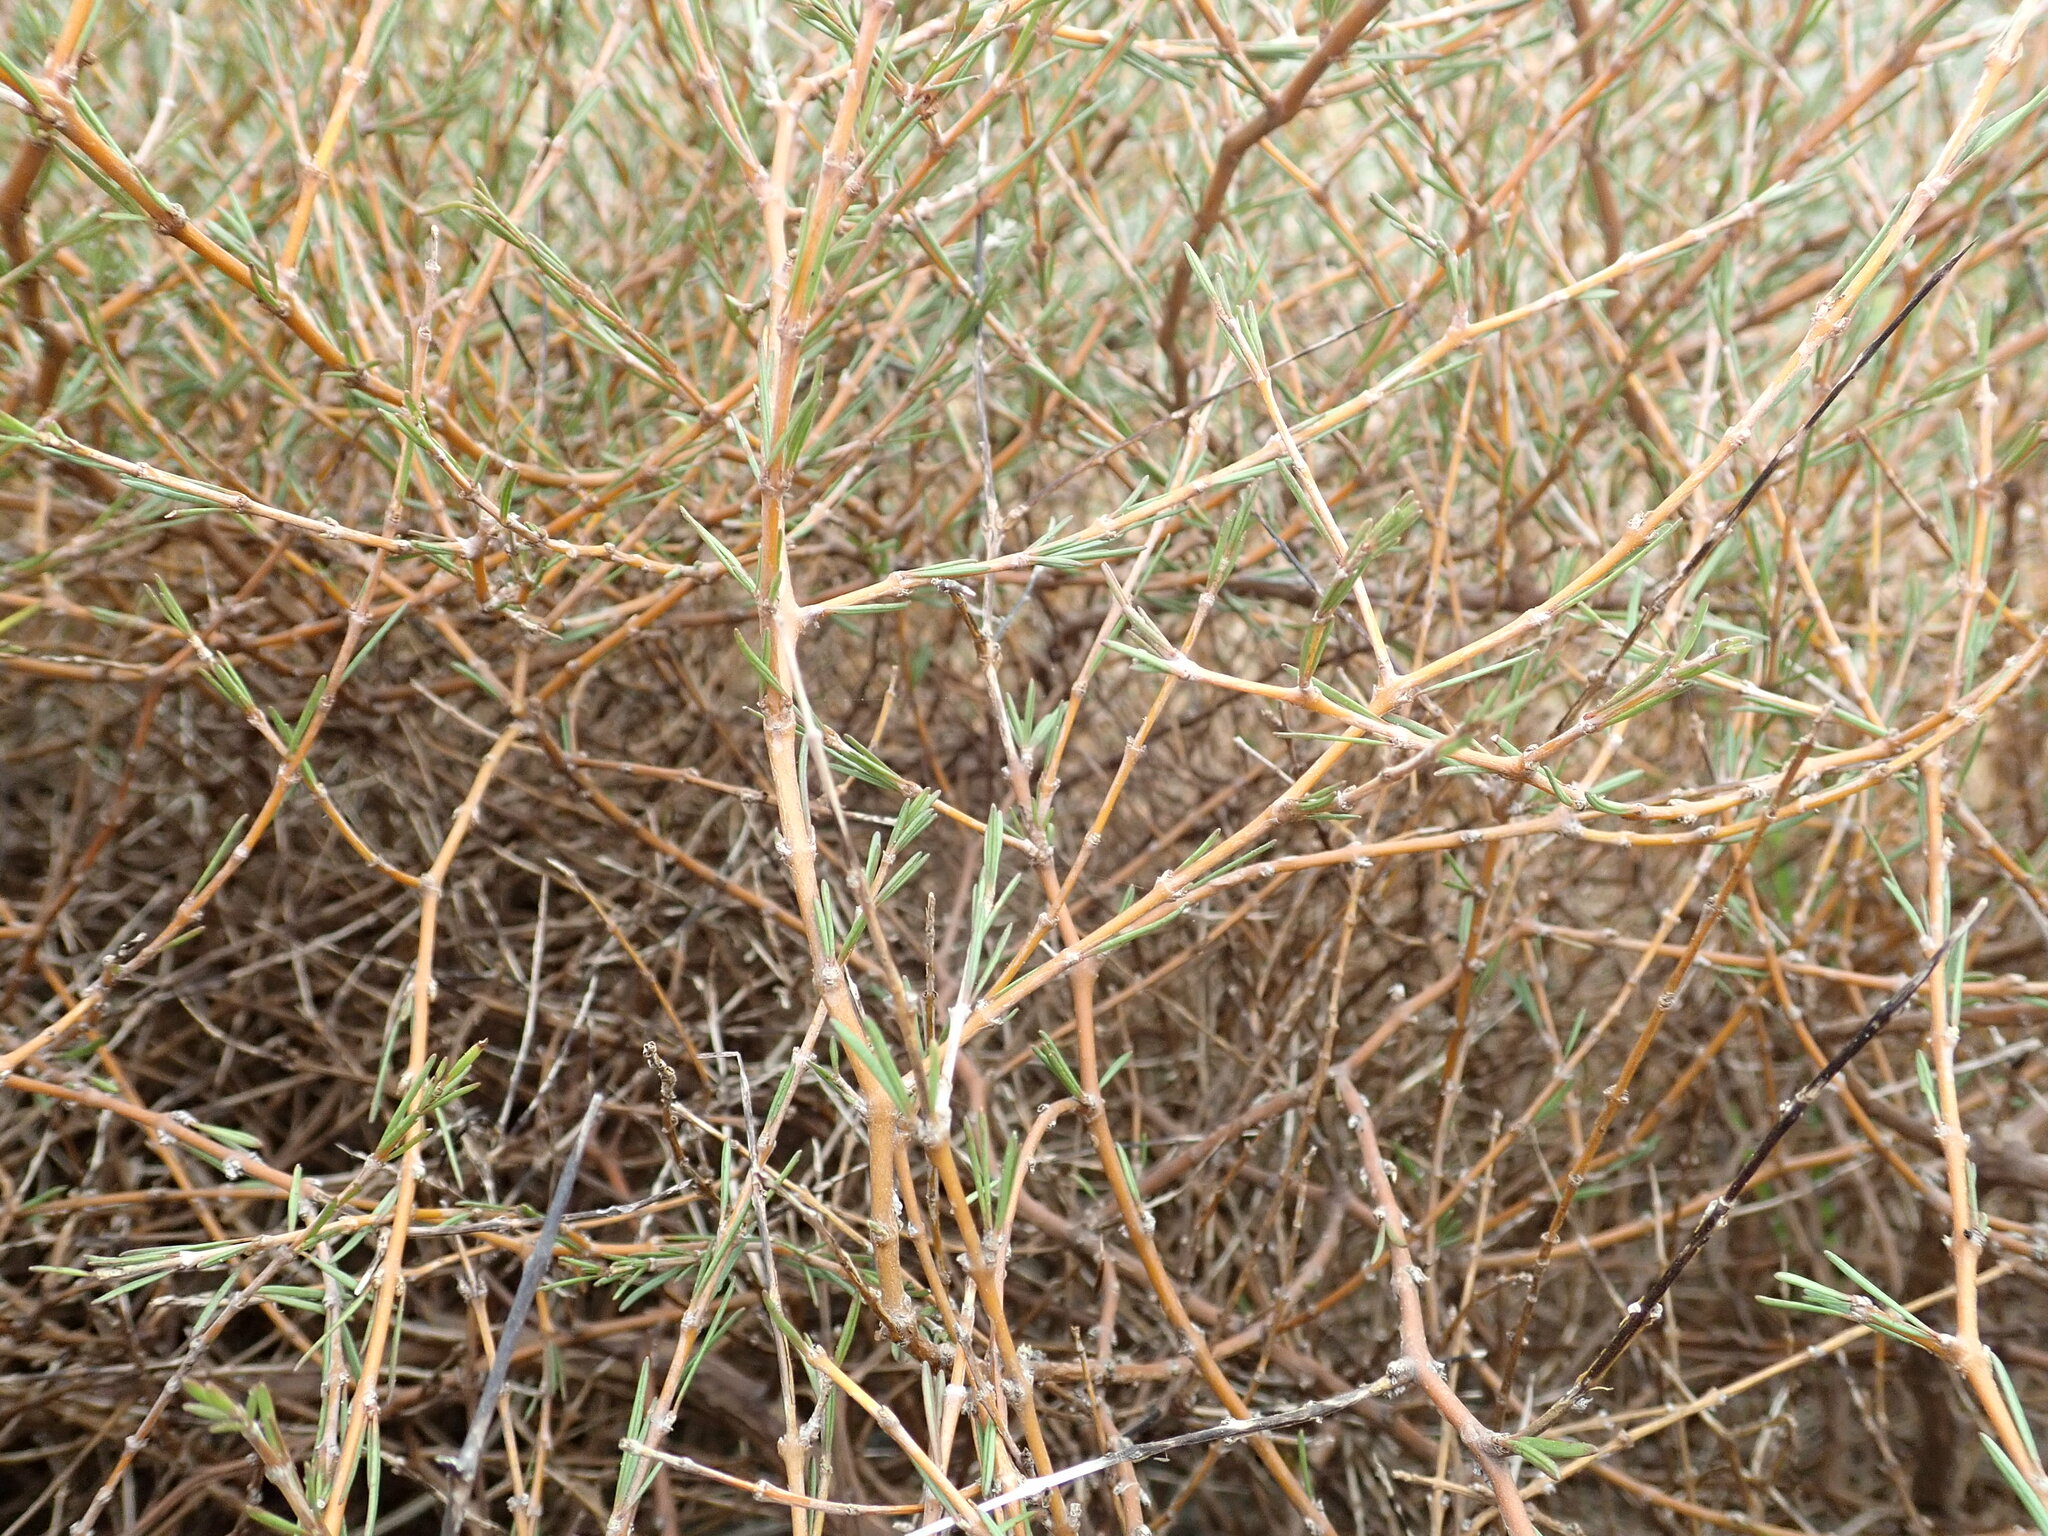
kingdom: Plantae
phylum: Tracheophyta
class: Magnoliopsida
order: Gentianales
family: Rubiaceae
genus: Coprosma
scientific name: Coprosma acerosa
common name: Sand coprosma
